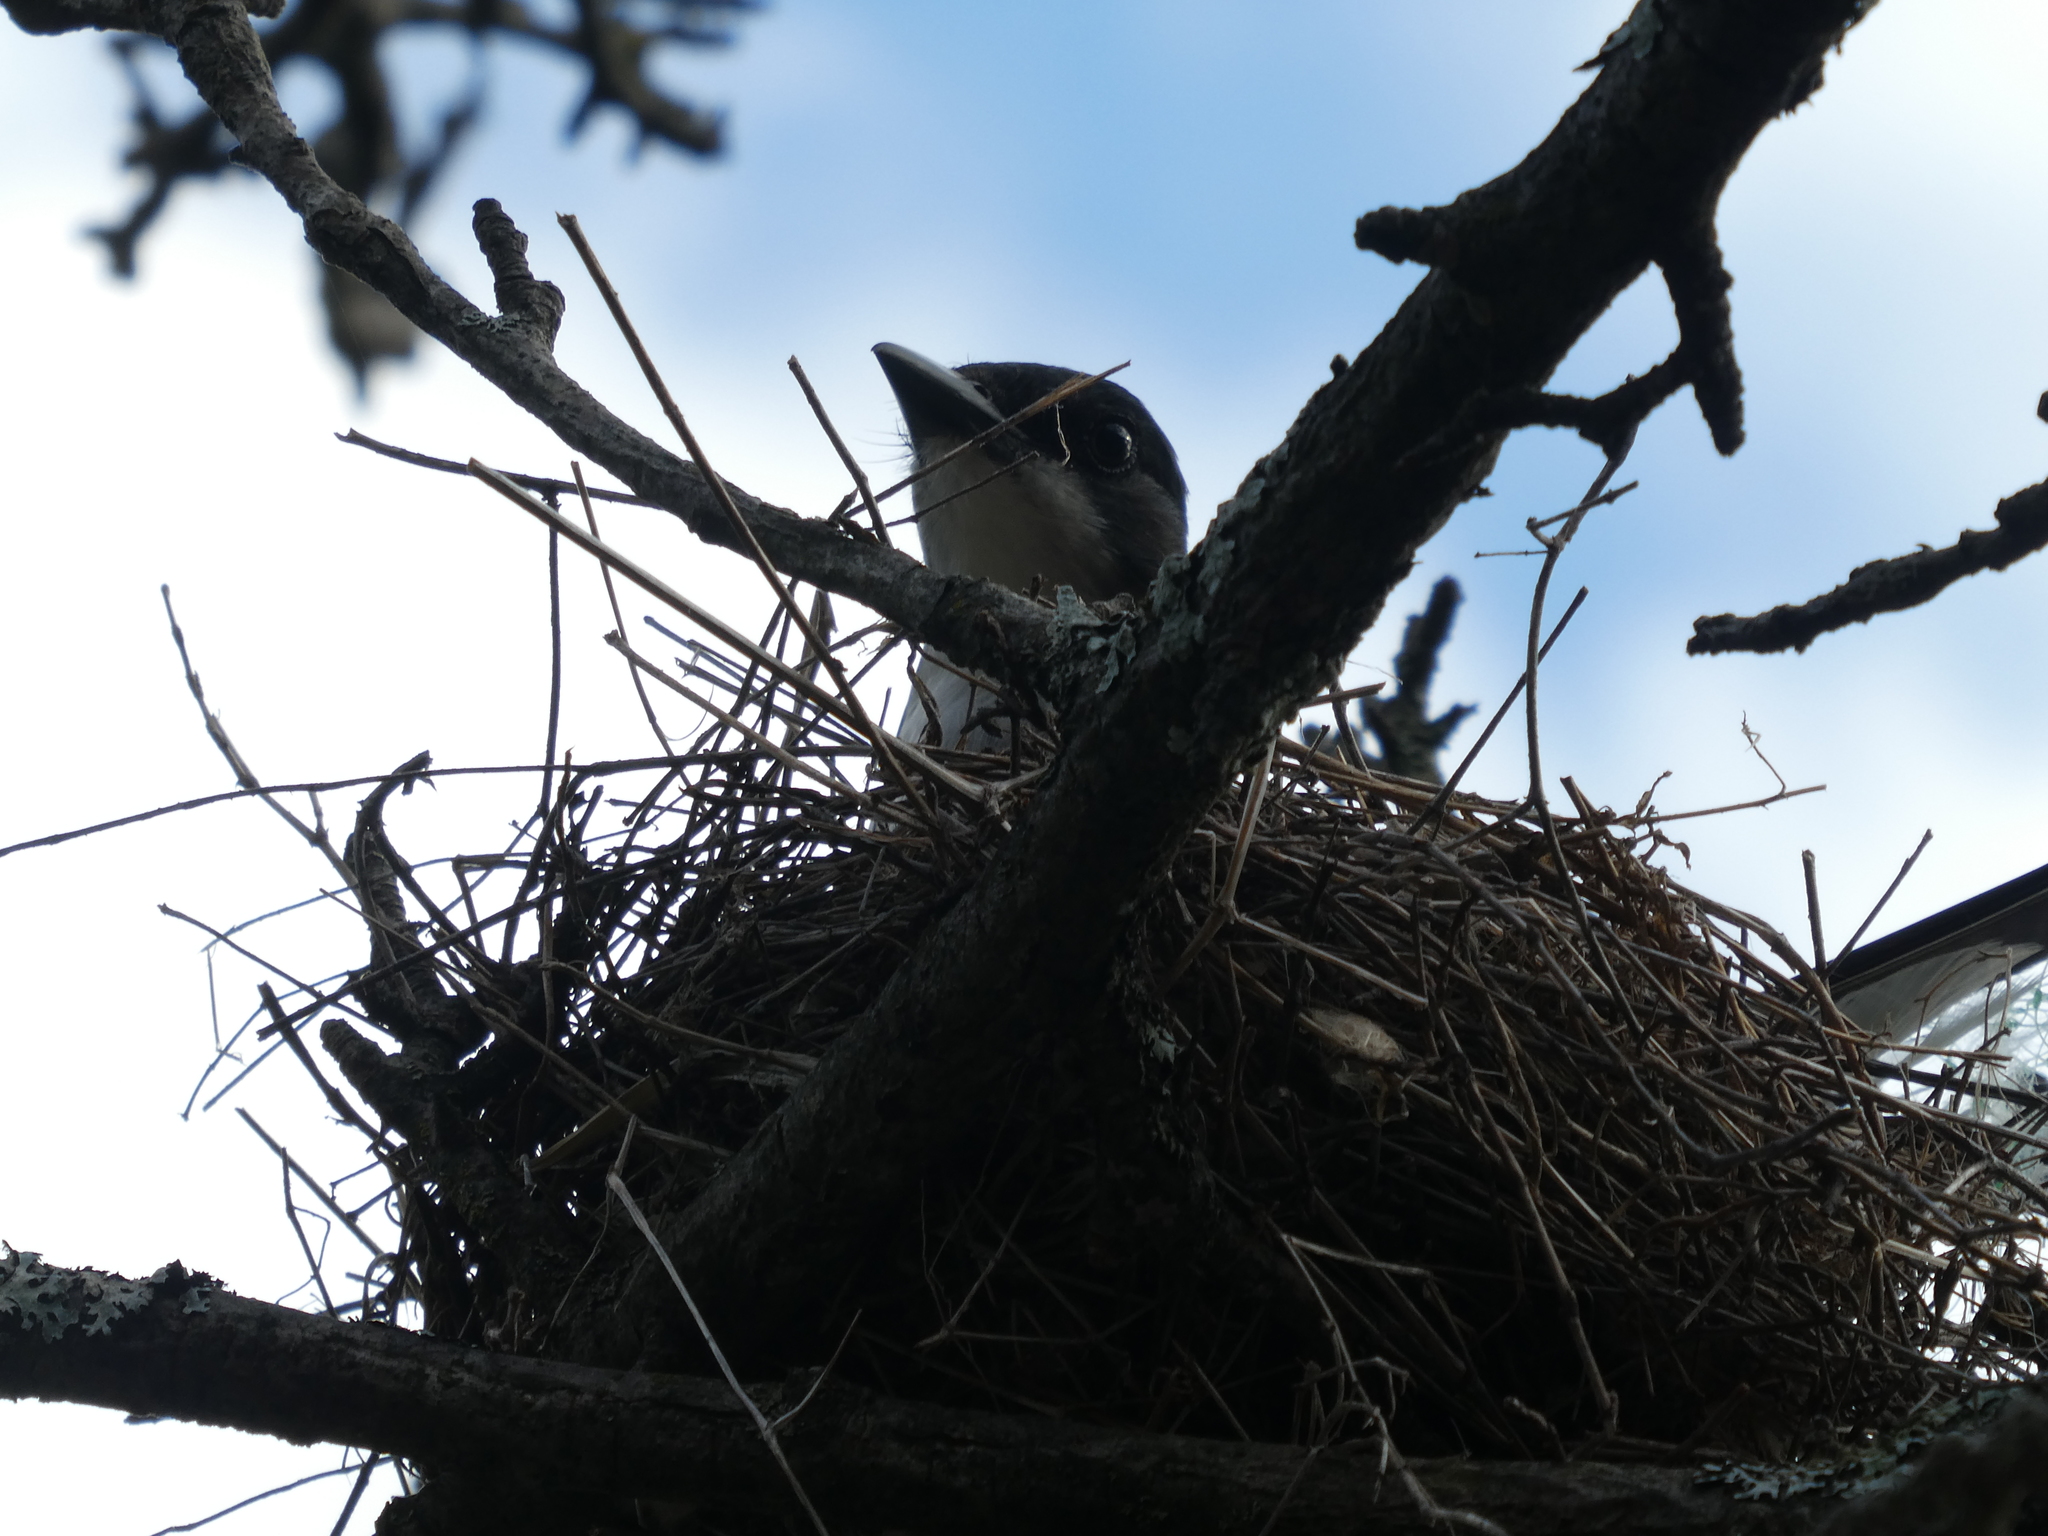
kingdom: Animalia
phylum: Chordata
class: Aves
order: Passeriformes
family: Tyrannidae
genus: Tyrannus
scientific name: Tyrannus tyrannus
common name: Eastern kingbird
